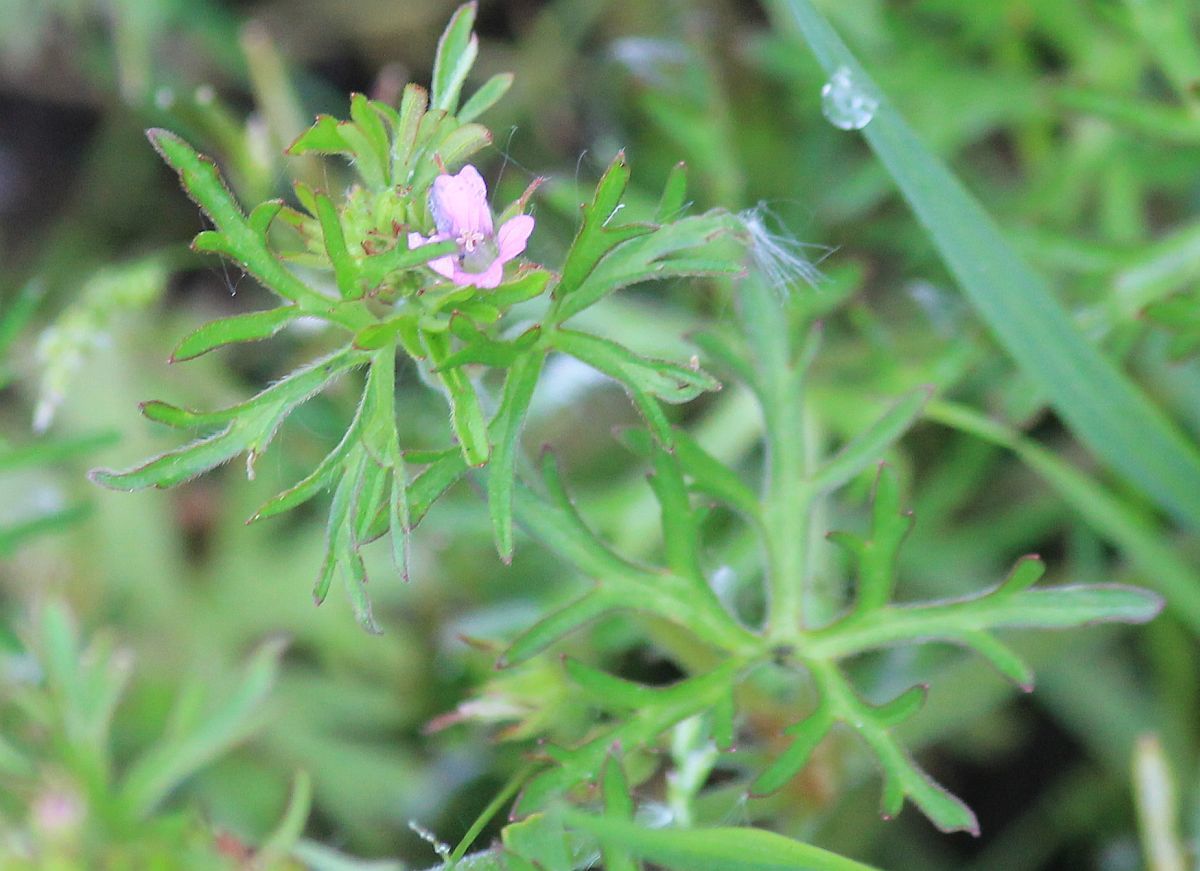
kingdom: Plantae
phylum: Tracheophyta
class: Magnoliopsida
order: Geraniales
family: Geraniaceae
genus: Geranium
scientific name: Geranium dissectum
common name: Cut-leaved crane's-bill
